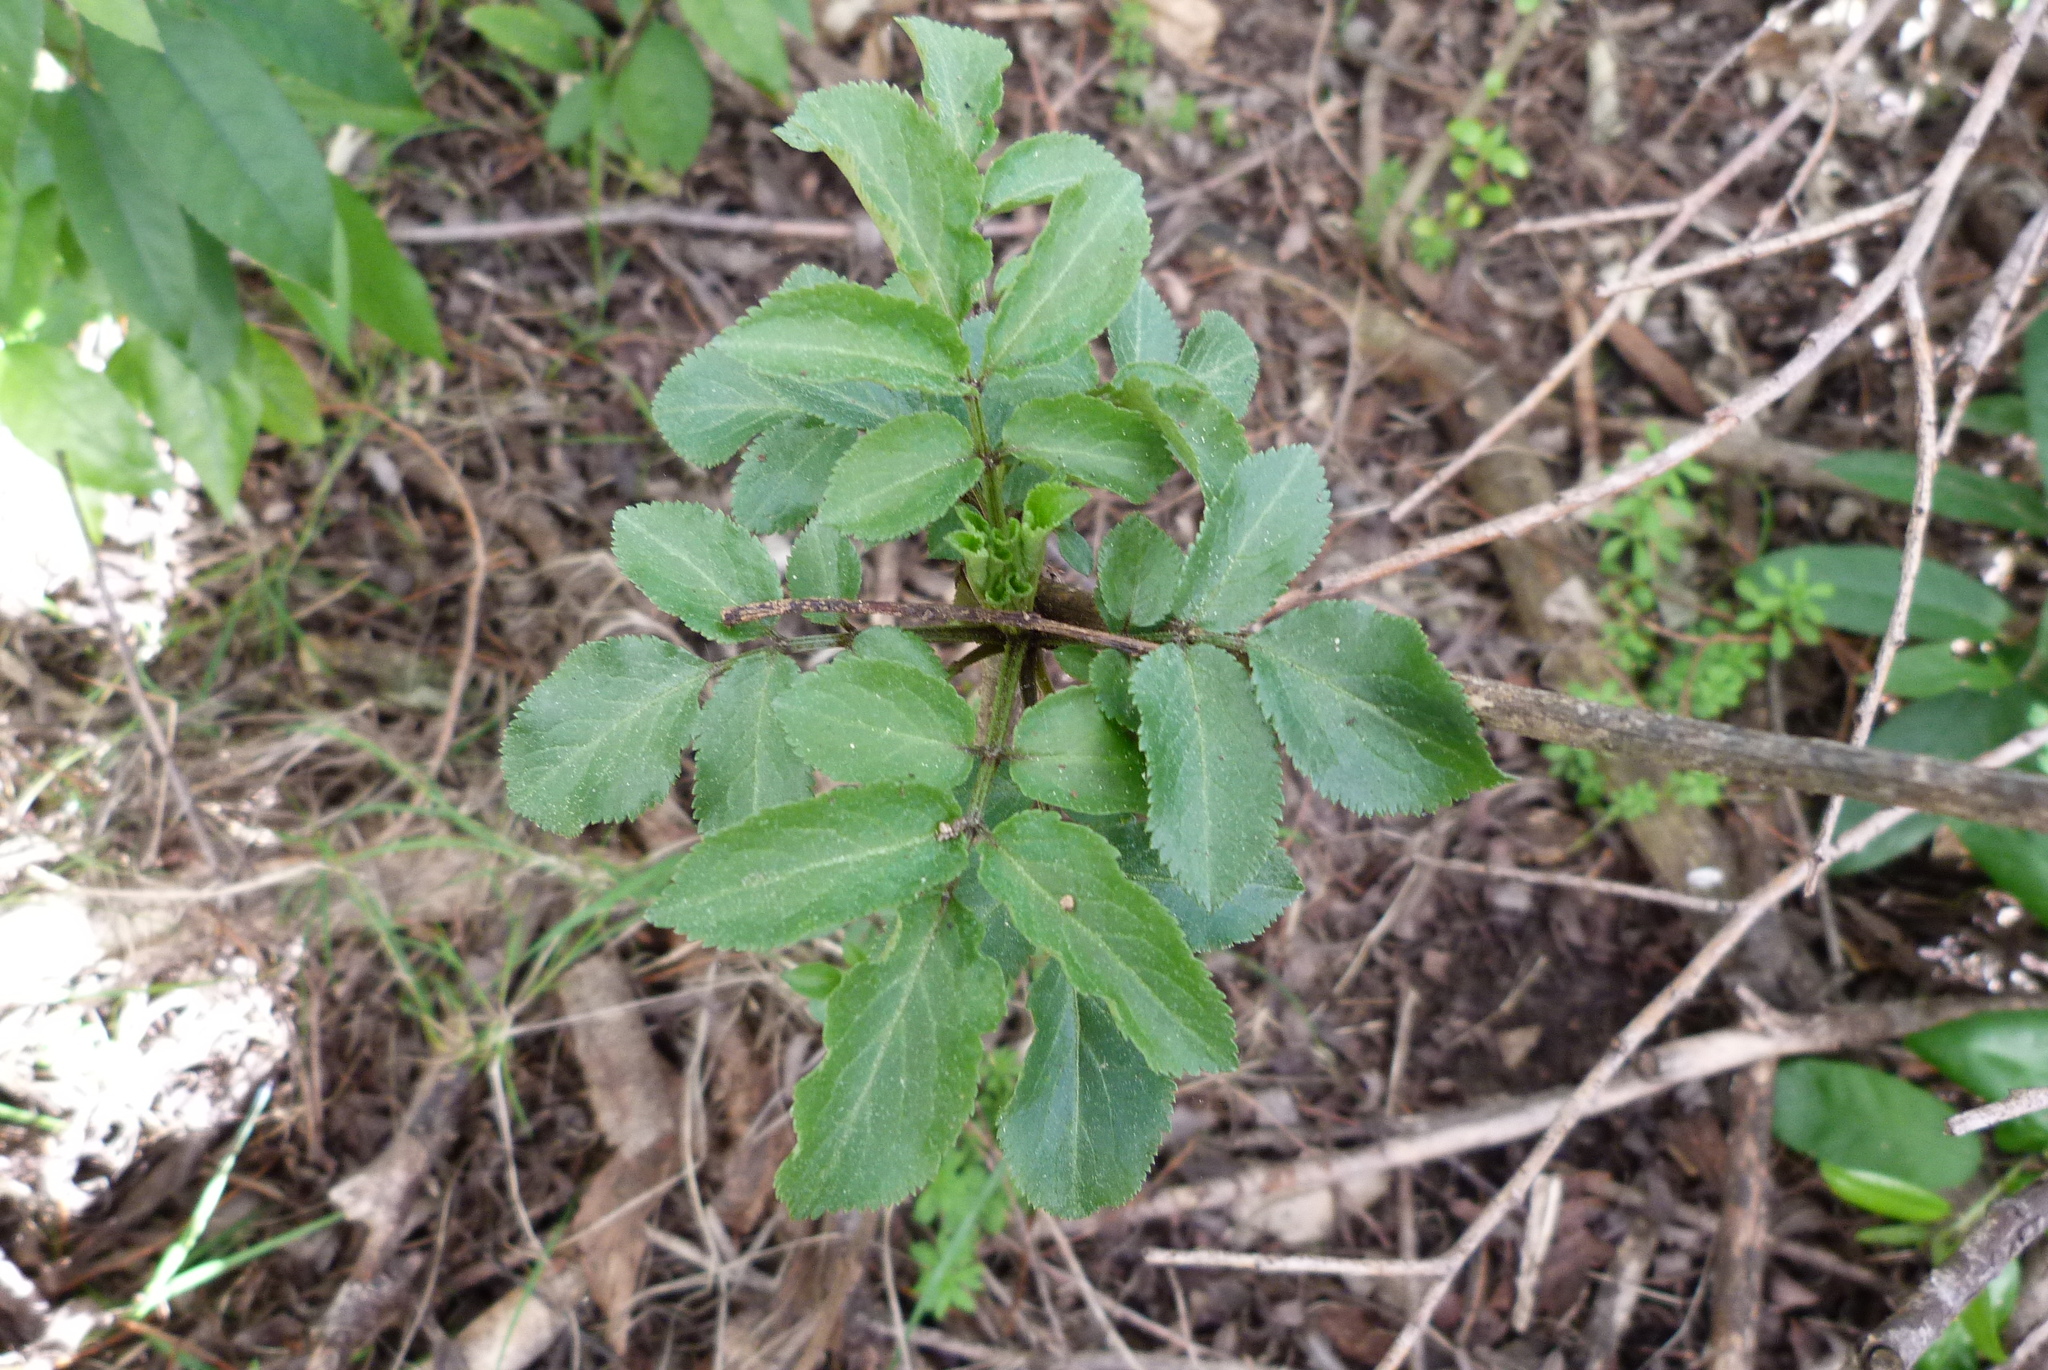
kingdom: Plantae
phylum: Tracheophyta
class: Magnoliopsida
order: Dipsacales
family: Viburnaceae
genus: Sambucus
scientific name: Sambucus nigra
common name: Elder
